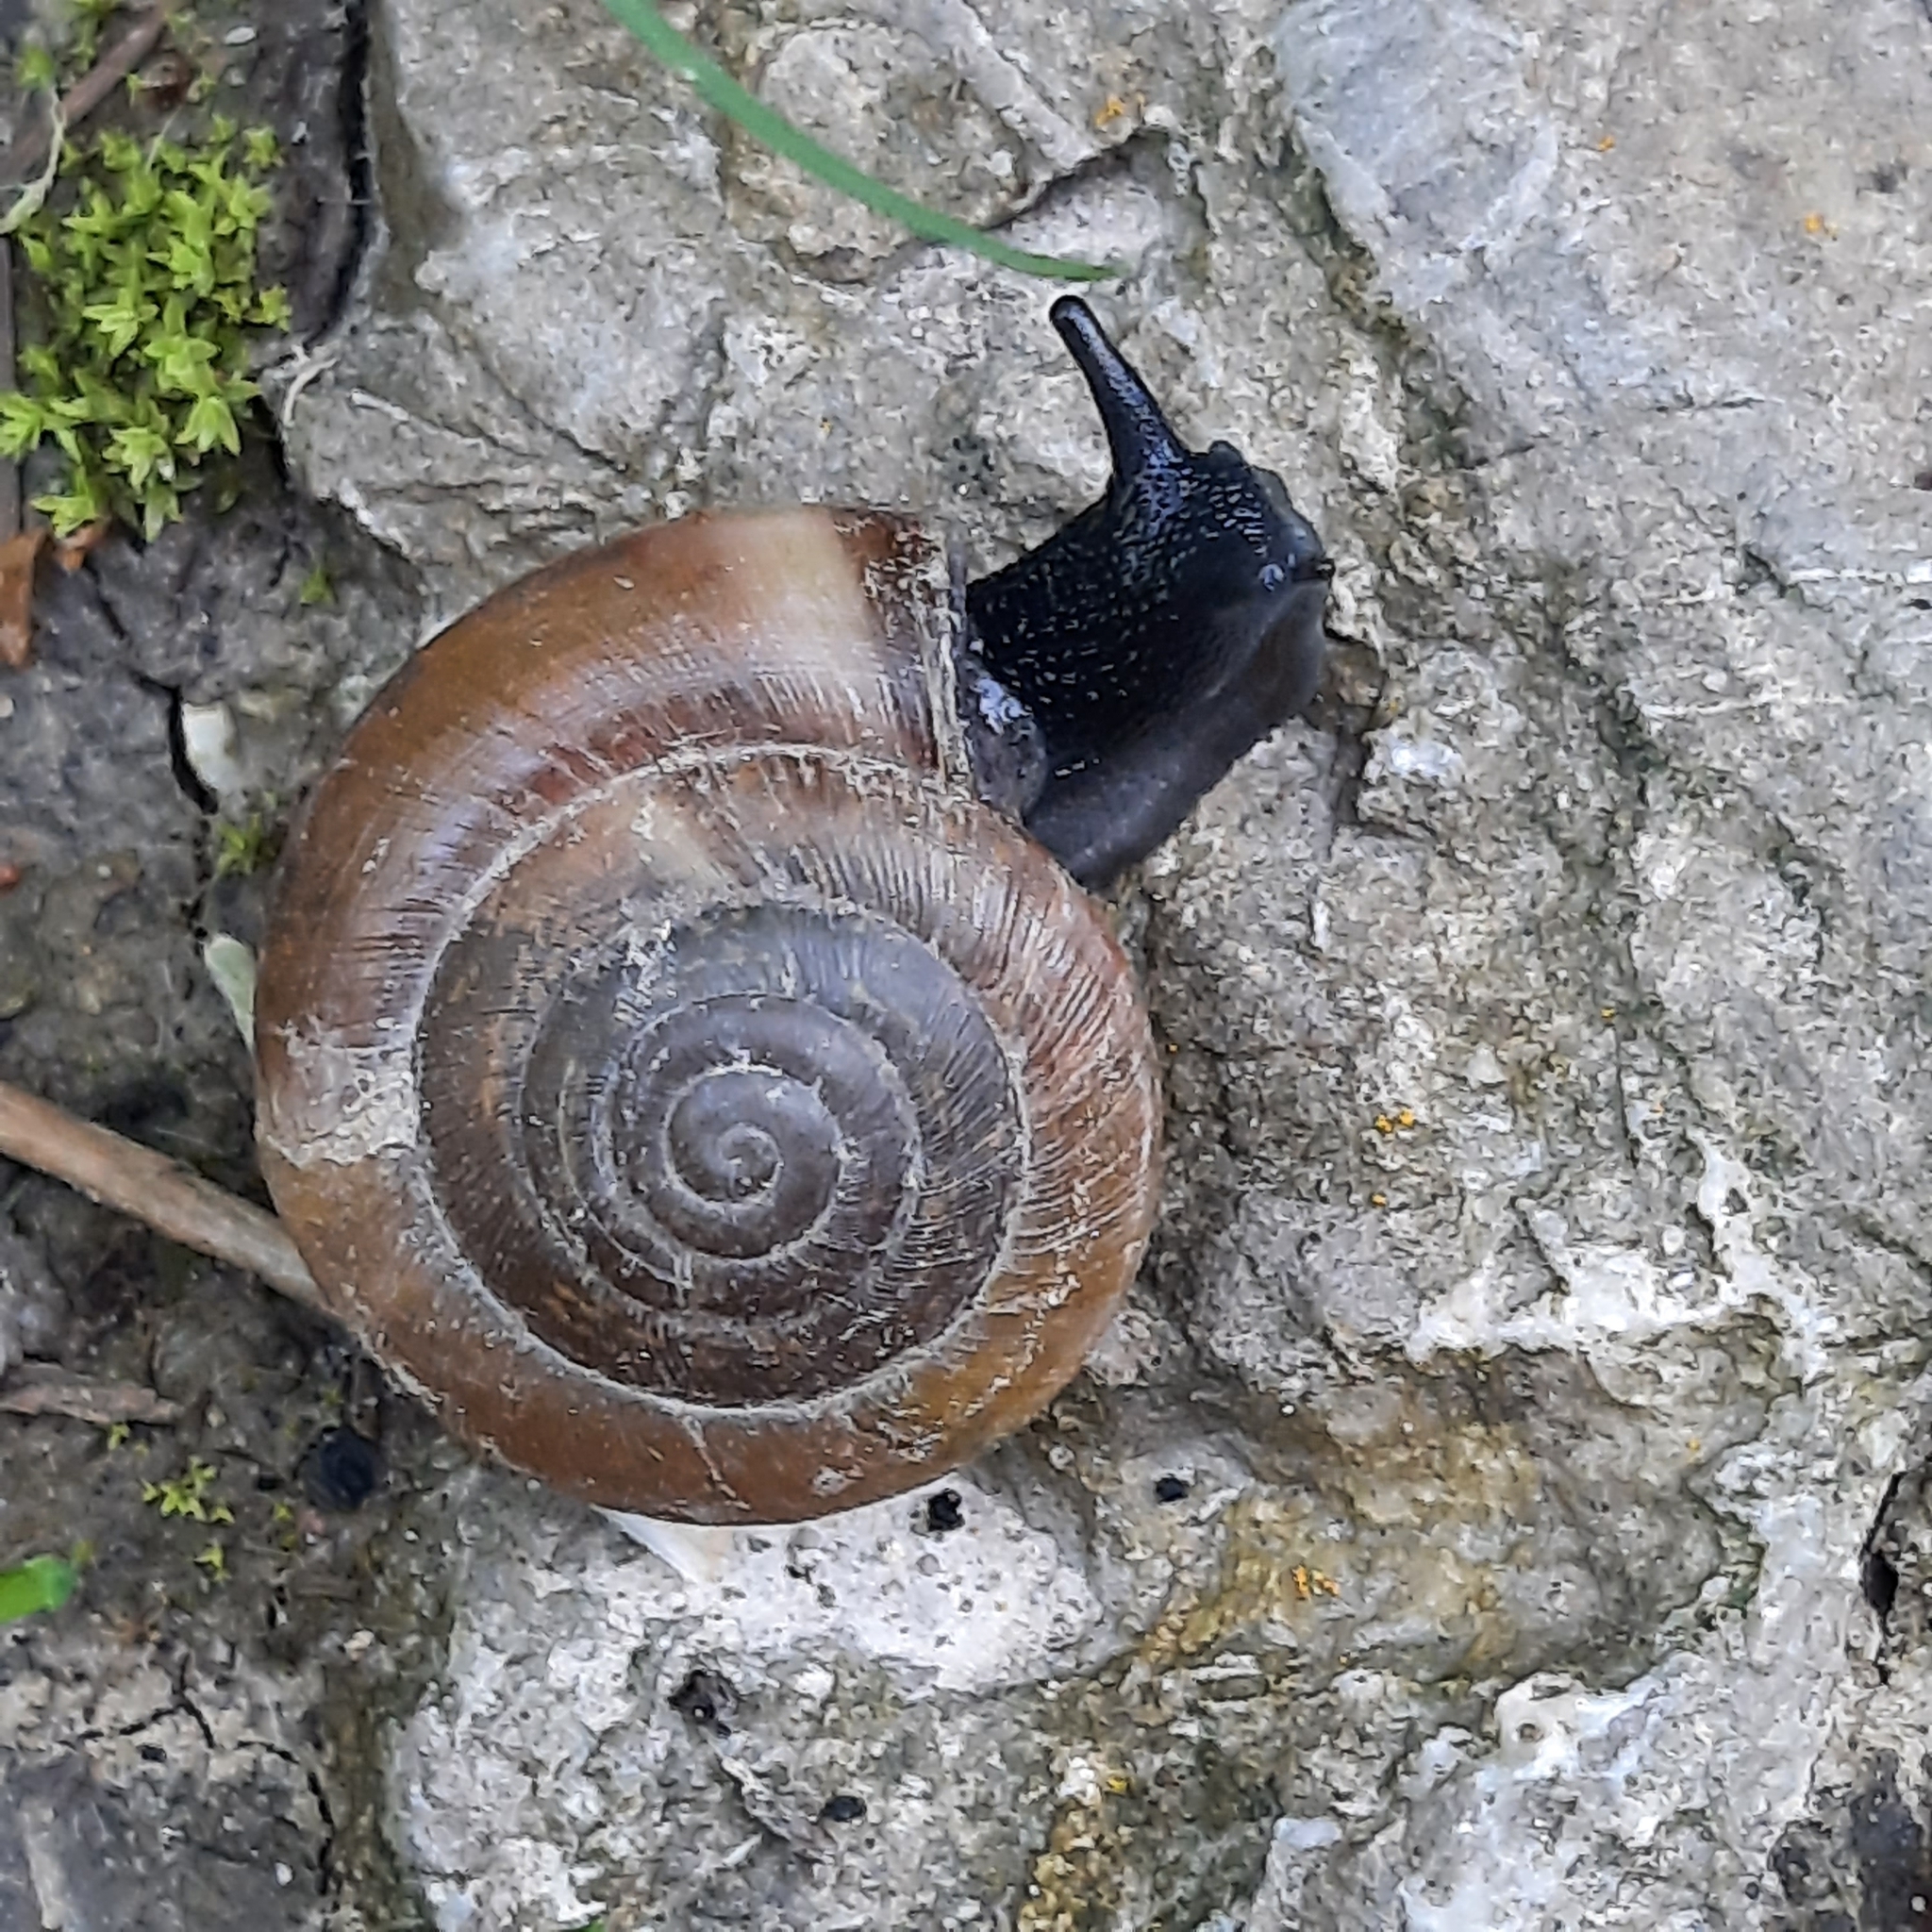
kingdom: Animalia
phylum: Mollusca
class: Gastropoda
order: Stylommatophora
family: Zonitidae
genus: Aegopis
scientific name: Aegopis verticillus
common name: Giant glass snail
